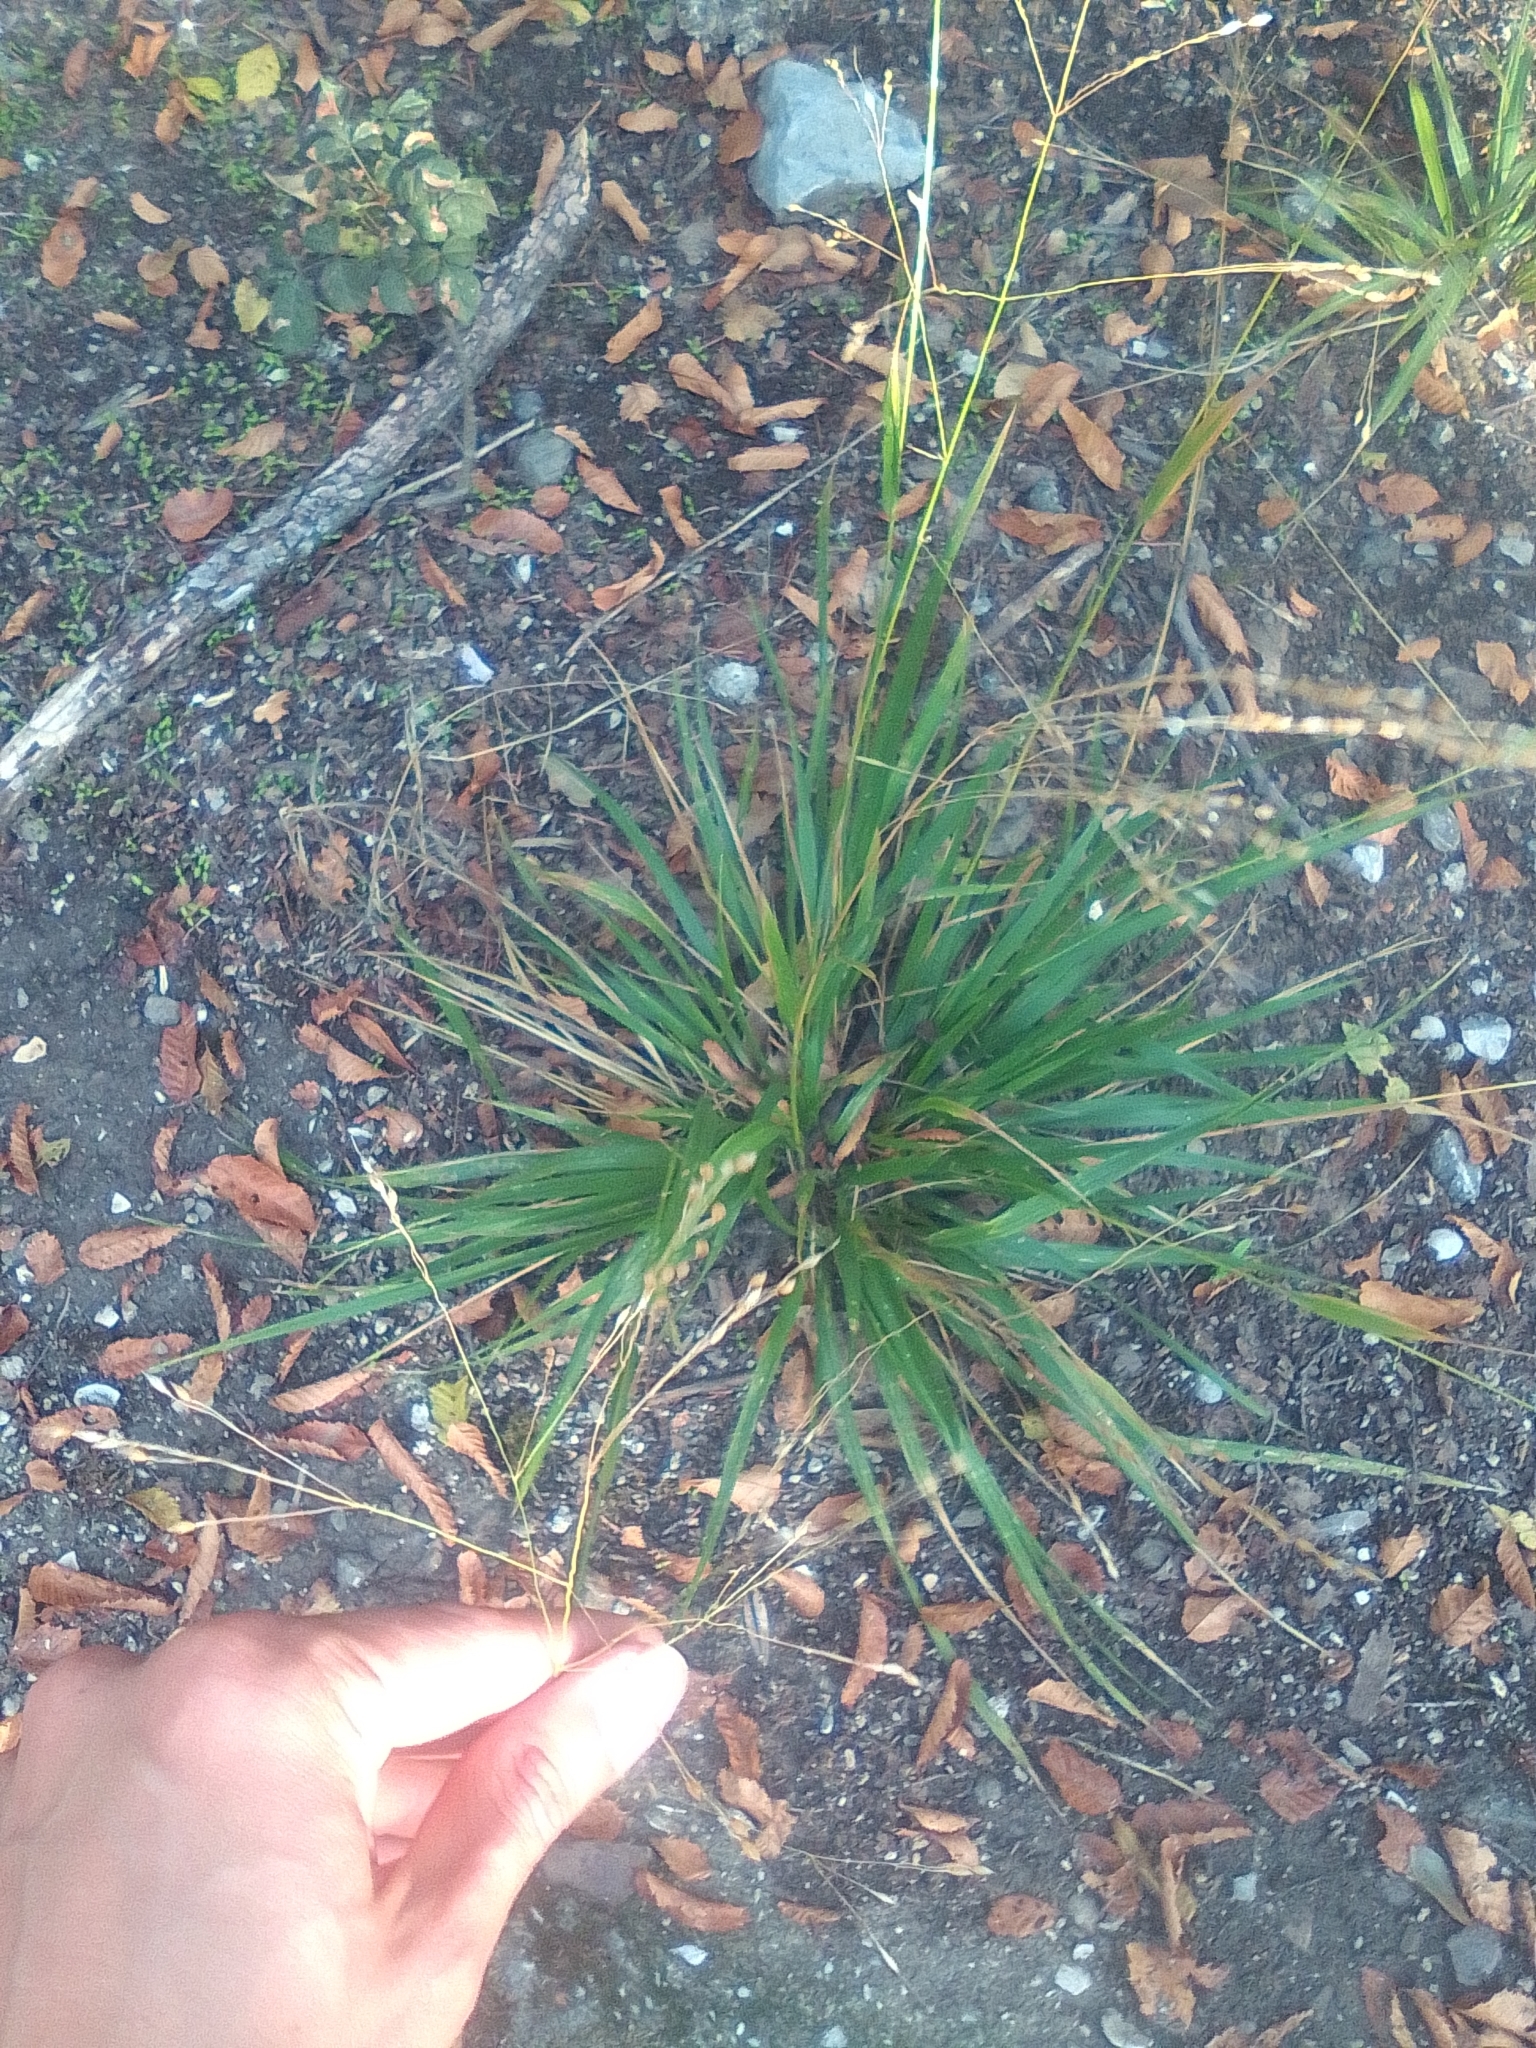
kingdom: Plantae
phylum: Tracheophyta
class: Liliopsida
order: Poales
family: Poaceae
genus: Achnatherum
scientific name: Achnatherum virescens
